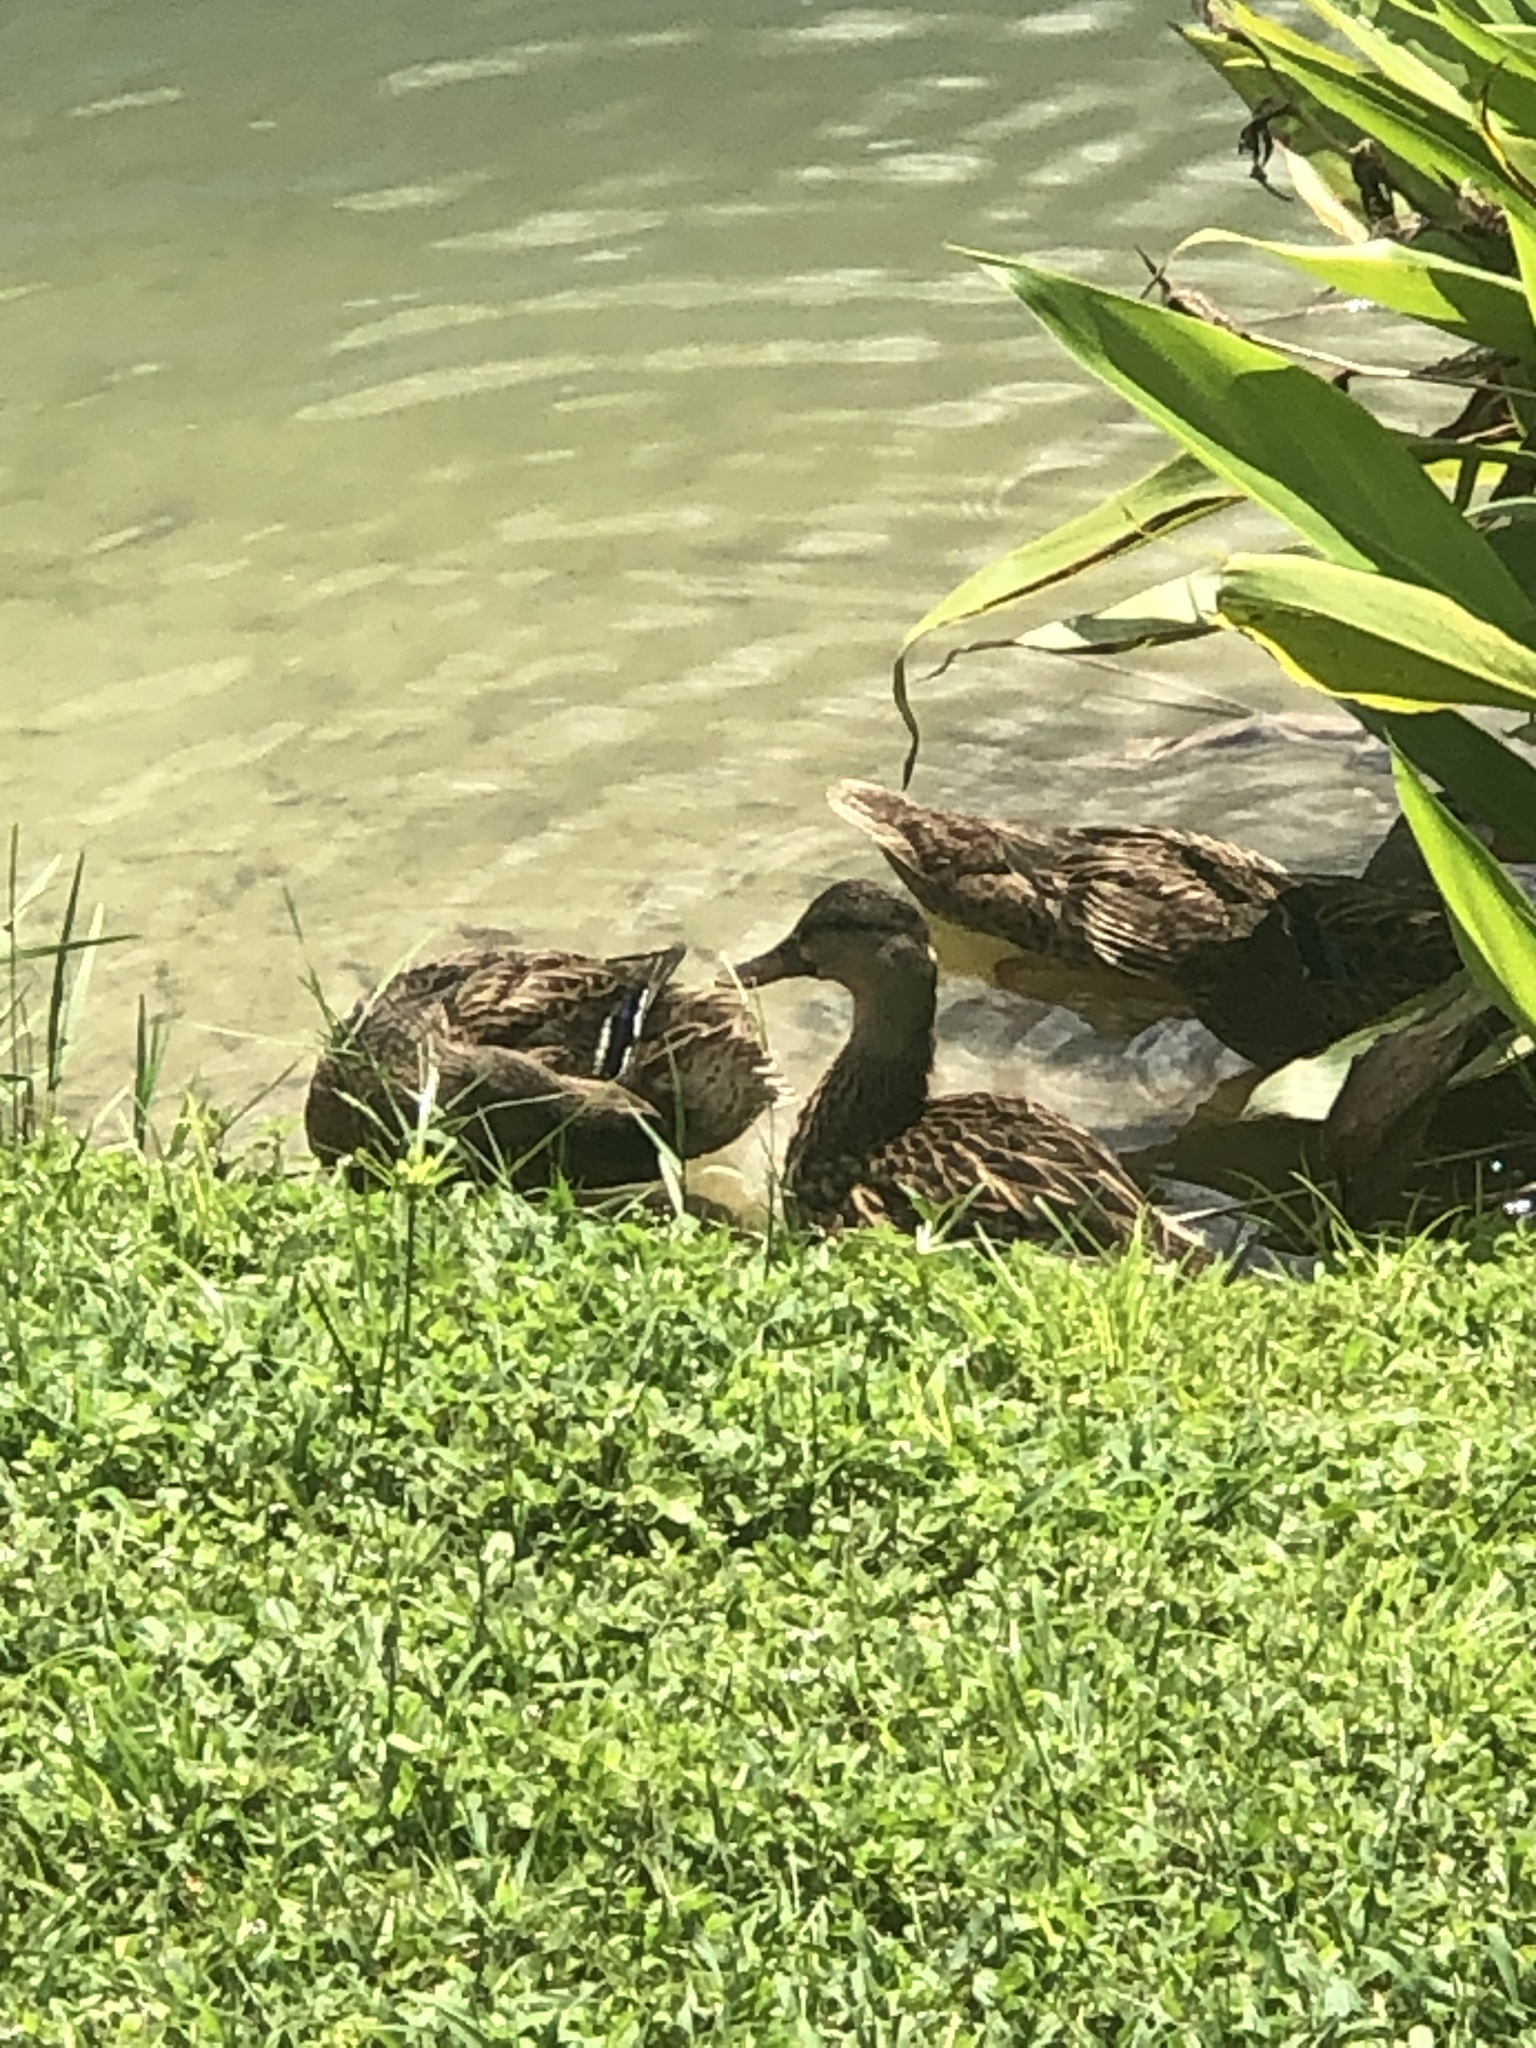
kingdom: Animalia
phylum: Chordata
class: Aves
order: Anseriformes
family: Anatidae
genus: Anas
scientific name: Anas
